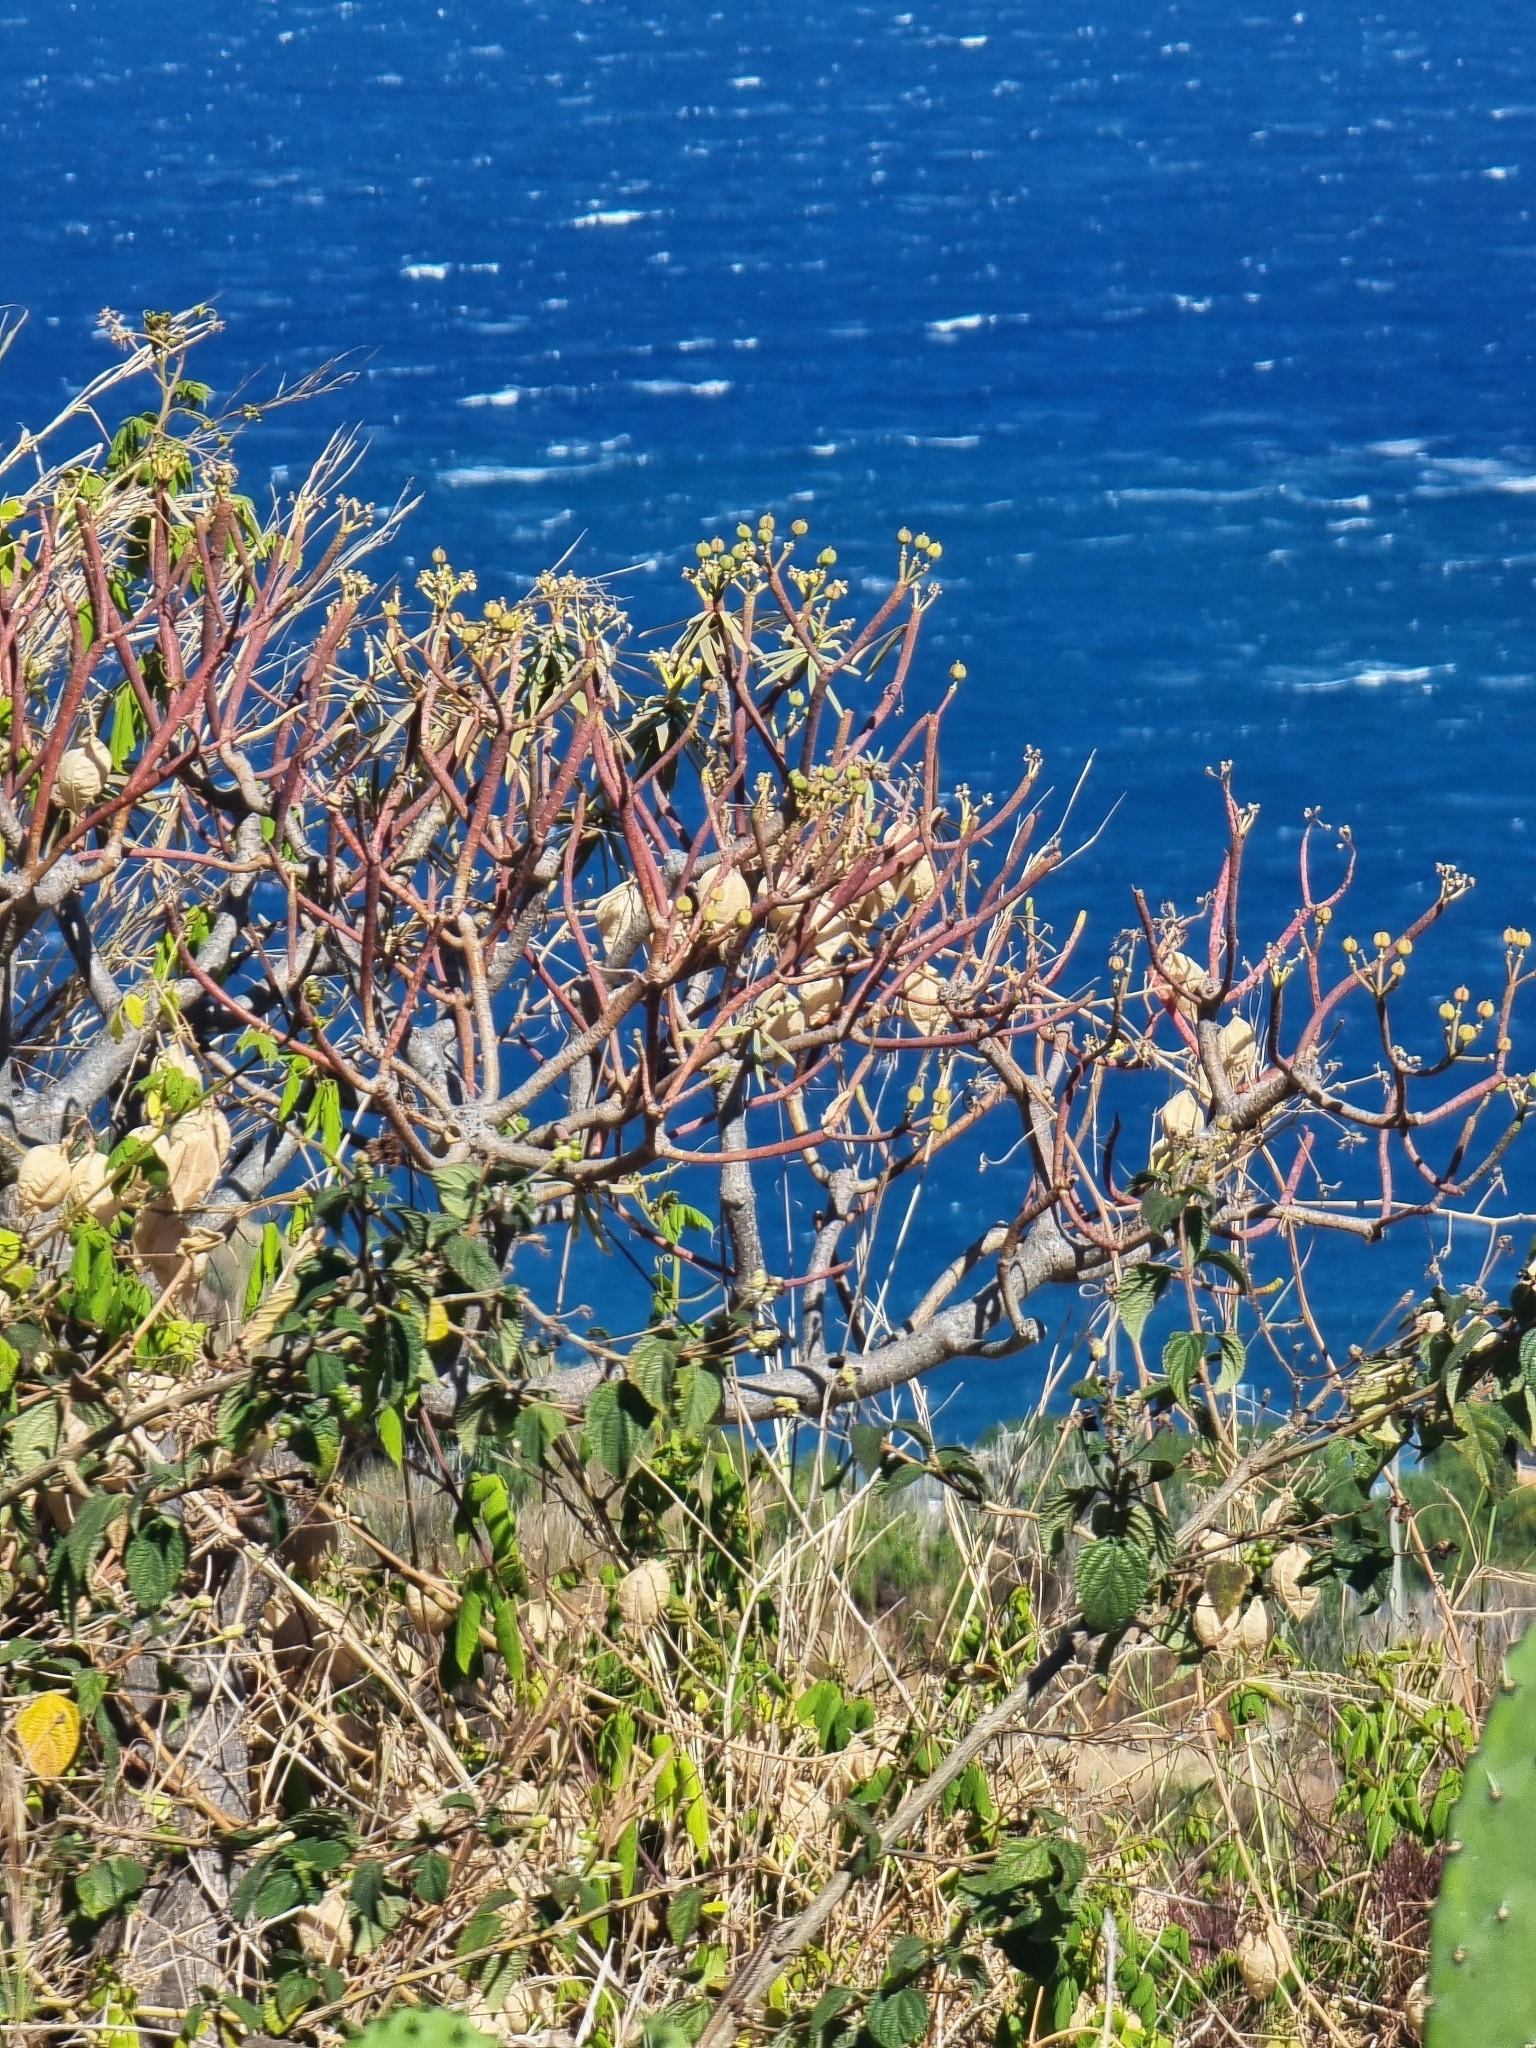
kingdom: Plantae
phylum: Tracheophyta
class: Magnoliopsida
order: Malpighiales
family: Euphorbiaceae
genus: Euphorbia
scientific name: Euphorbia piscatoria
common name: Fish-stunning spurge
